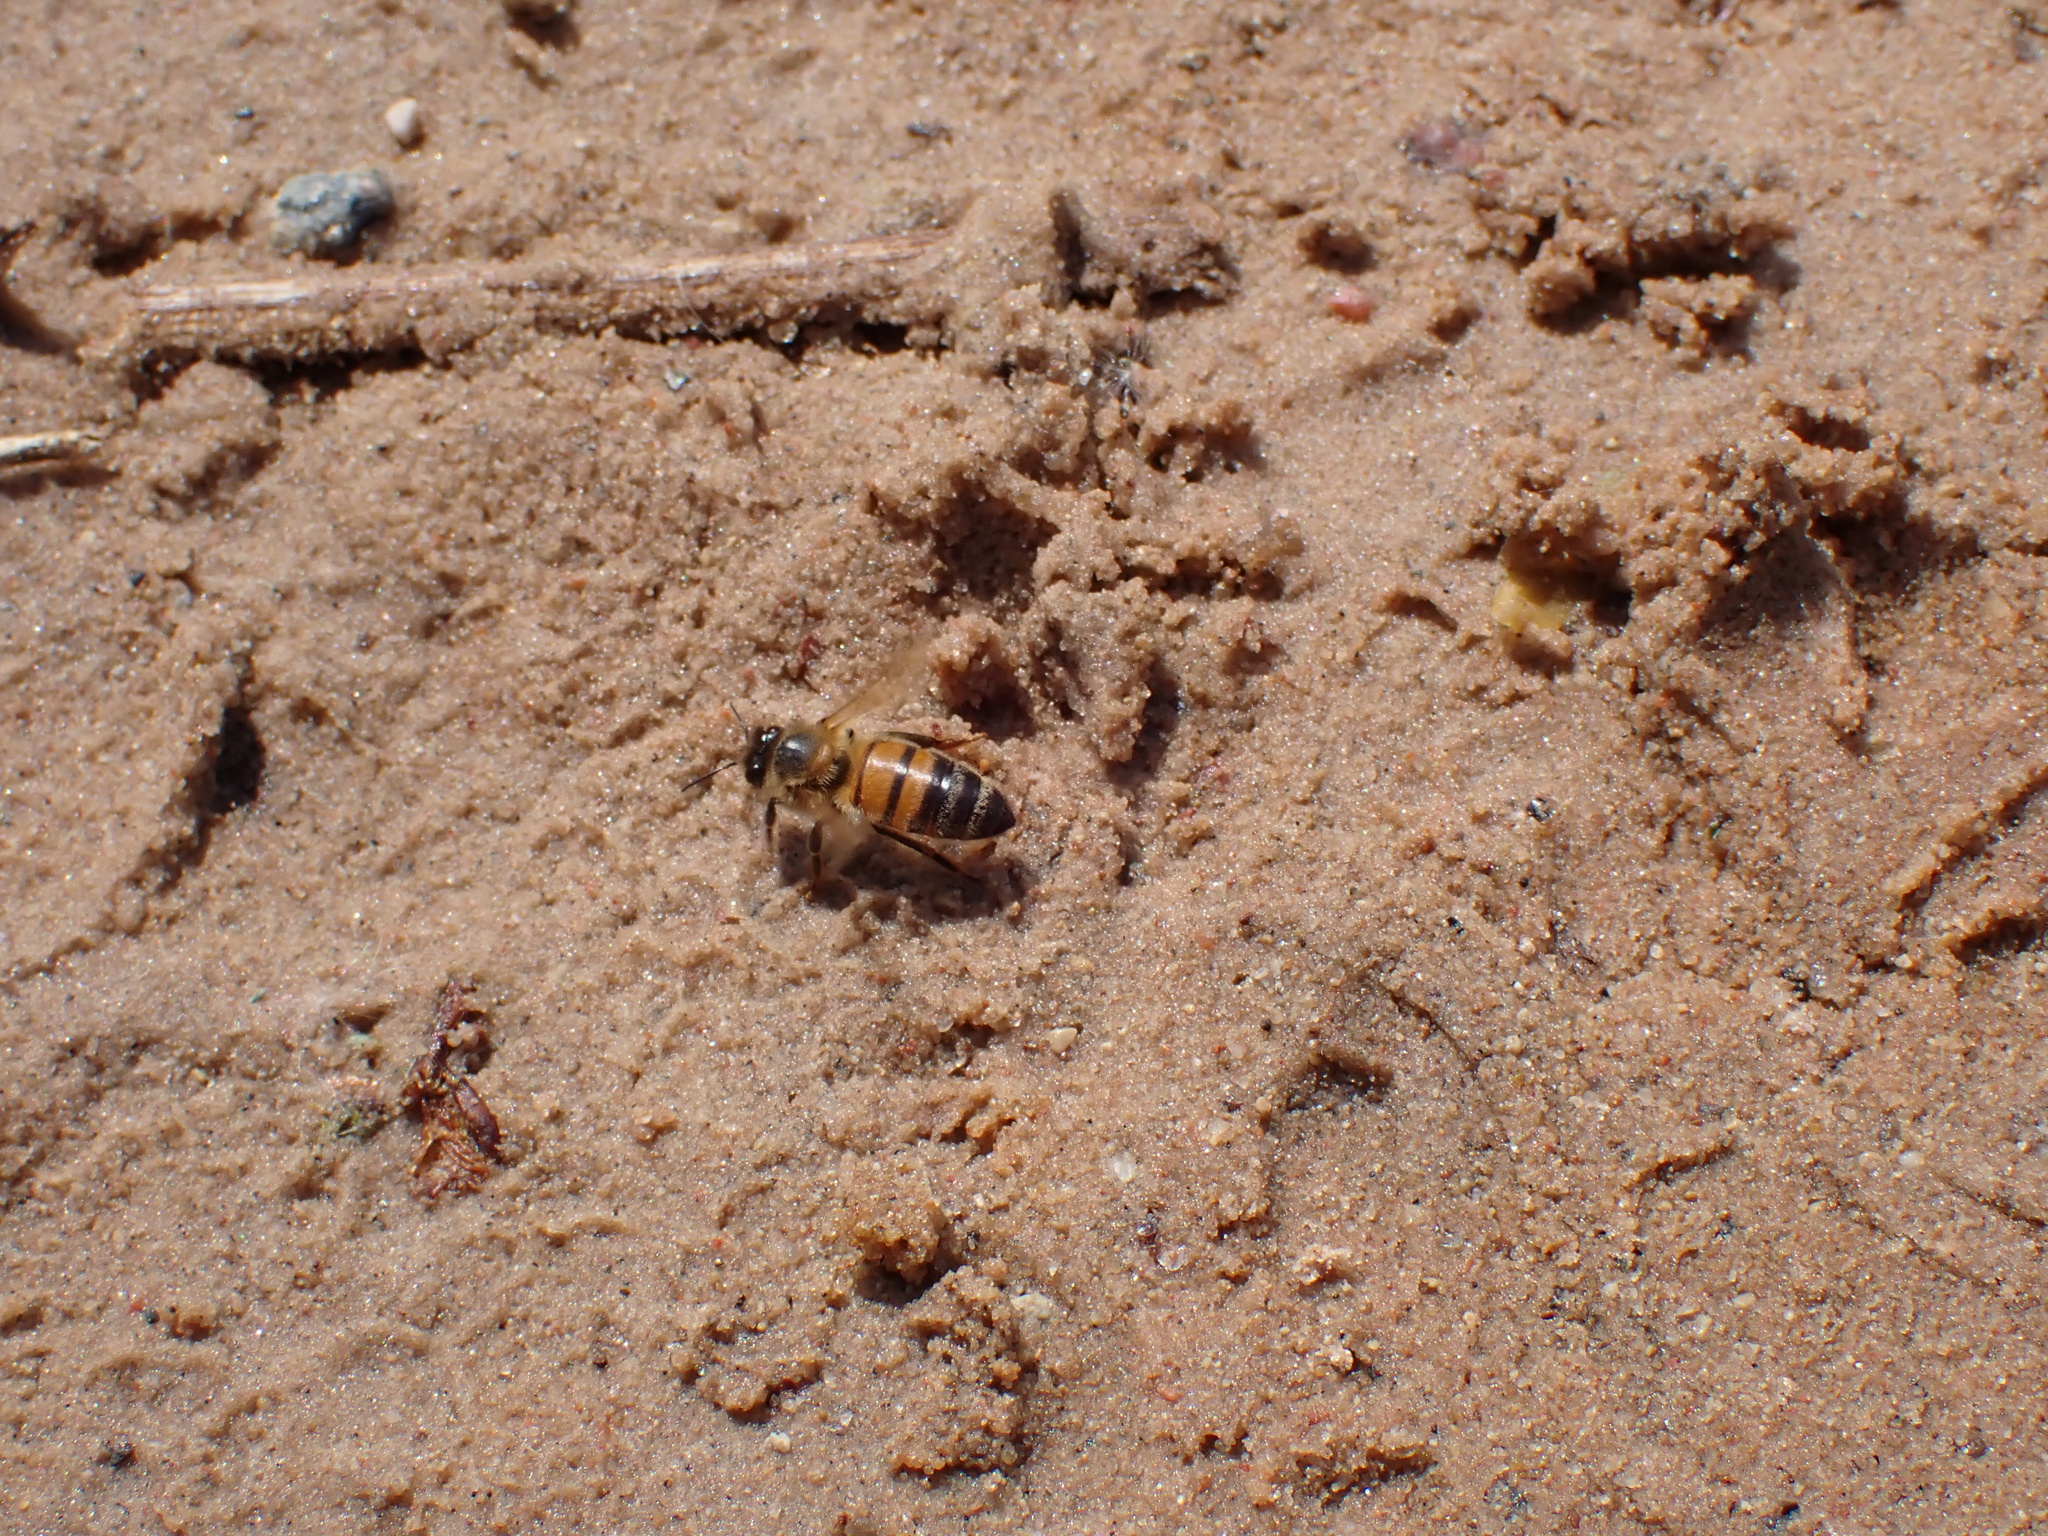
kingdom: Animalia
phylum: Arthropoda
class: Insecta
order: Hymenoptera
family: Apidae
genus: Apis
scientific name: Apis mellifera
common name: Honey bee
